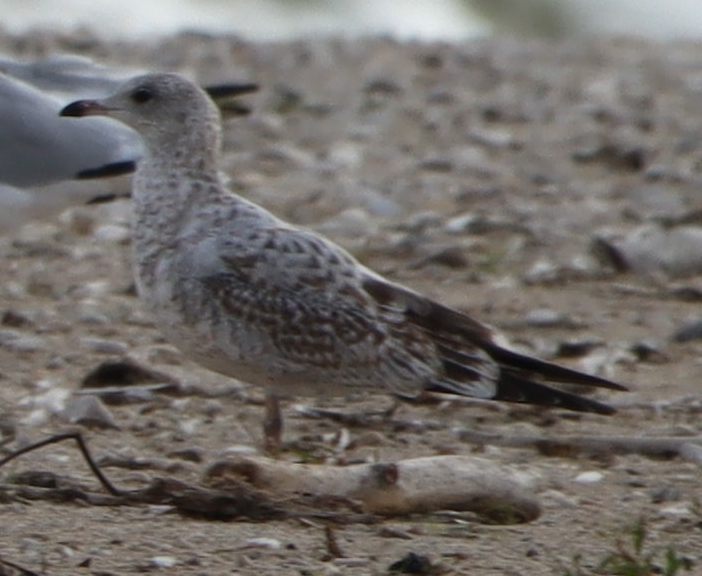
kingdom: Animalia
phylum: Chordata
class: Aves
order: Charadriiformes
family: Laridae
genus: Larus
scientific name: Larus delawarensis
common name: Ring-billed gull
